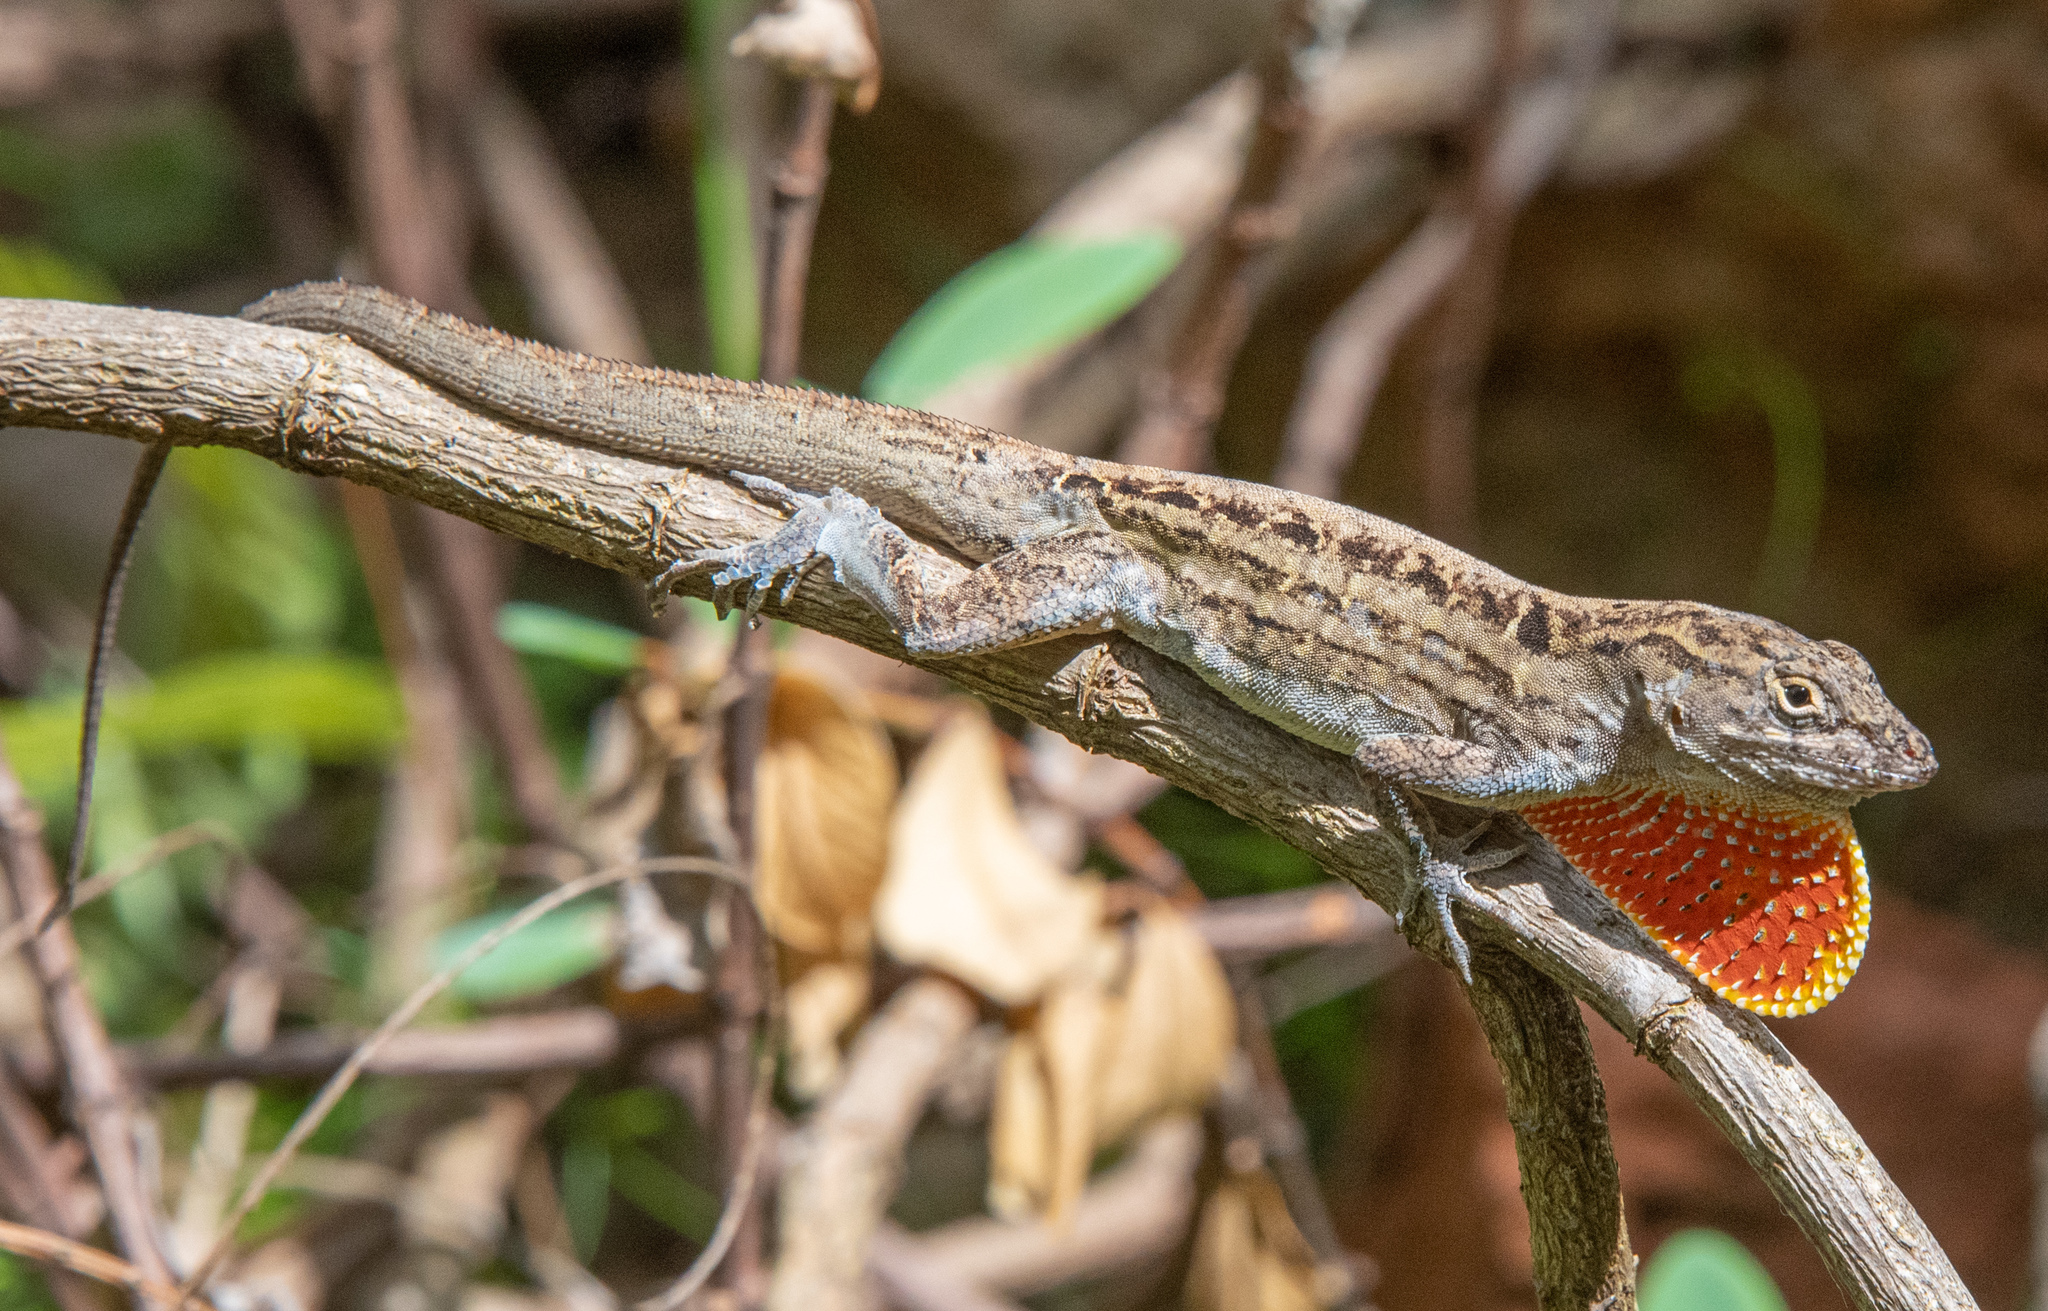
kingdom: Animalia
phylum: Chordata
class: Squamata
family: Dactyloidae
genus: Anolis
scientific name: Anolis sagrei
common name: Brown anole
